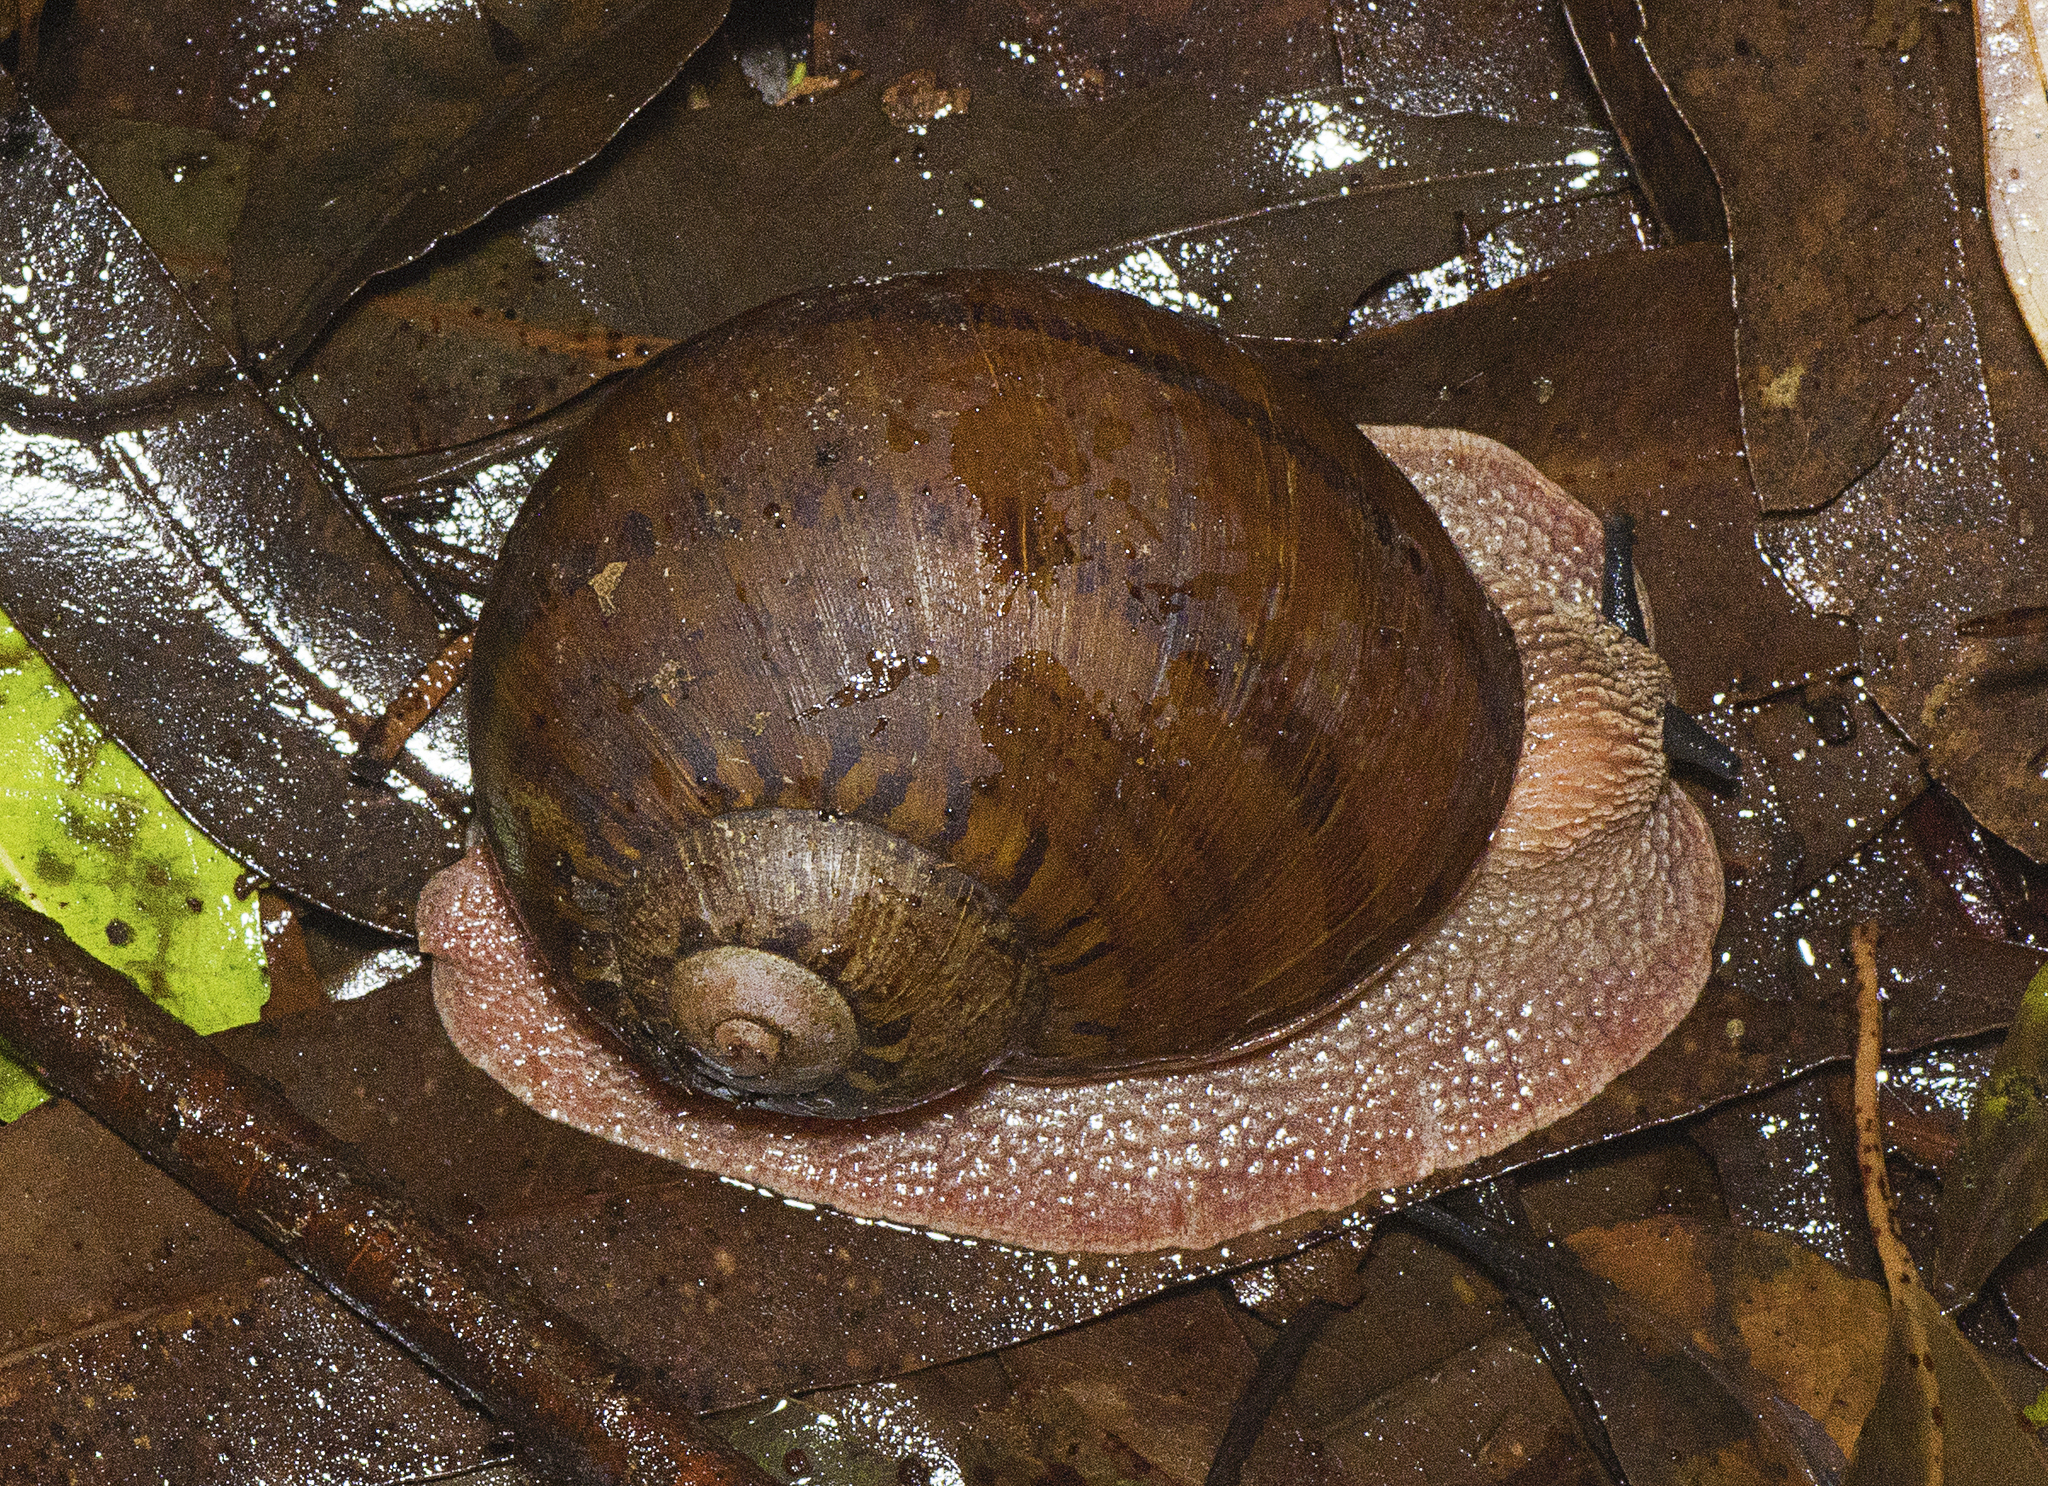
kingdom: Animalia
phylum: Mollusca
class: Gastropoda
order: Stylommatophora
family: Caryodidae
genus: Hedleyella
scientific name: Hedleyella falconeri
